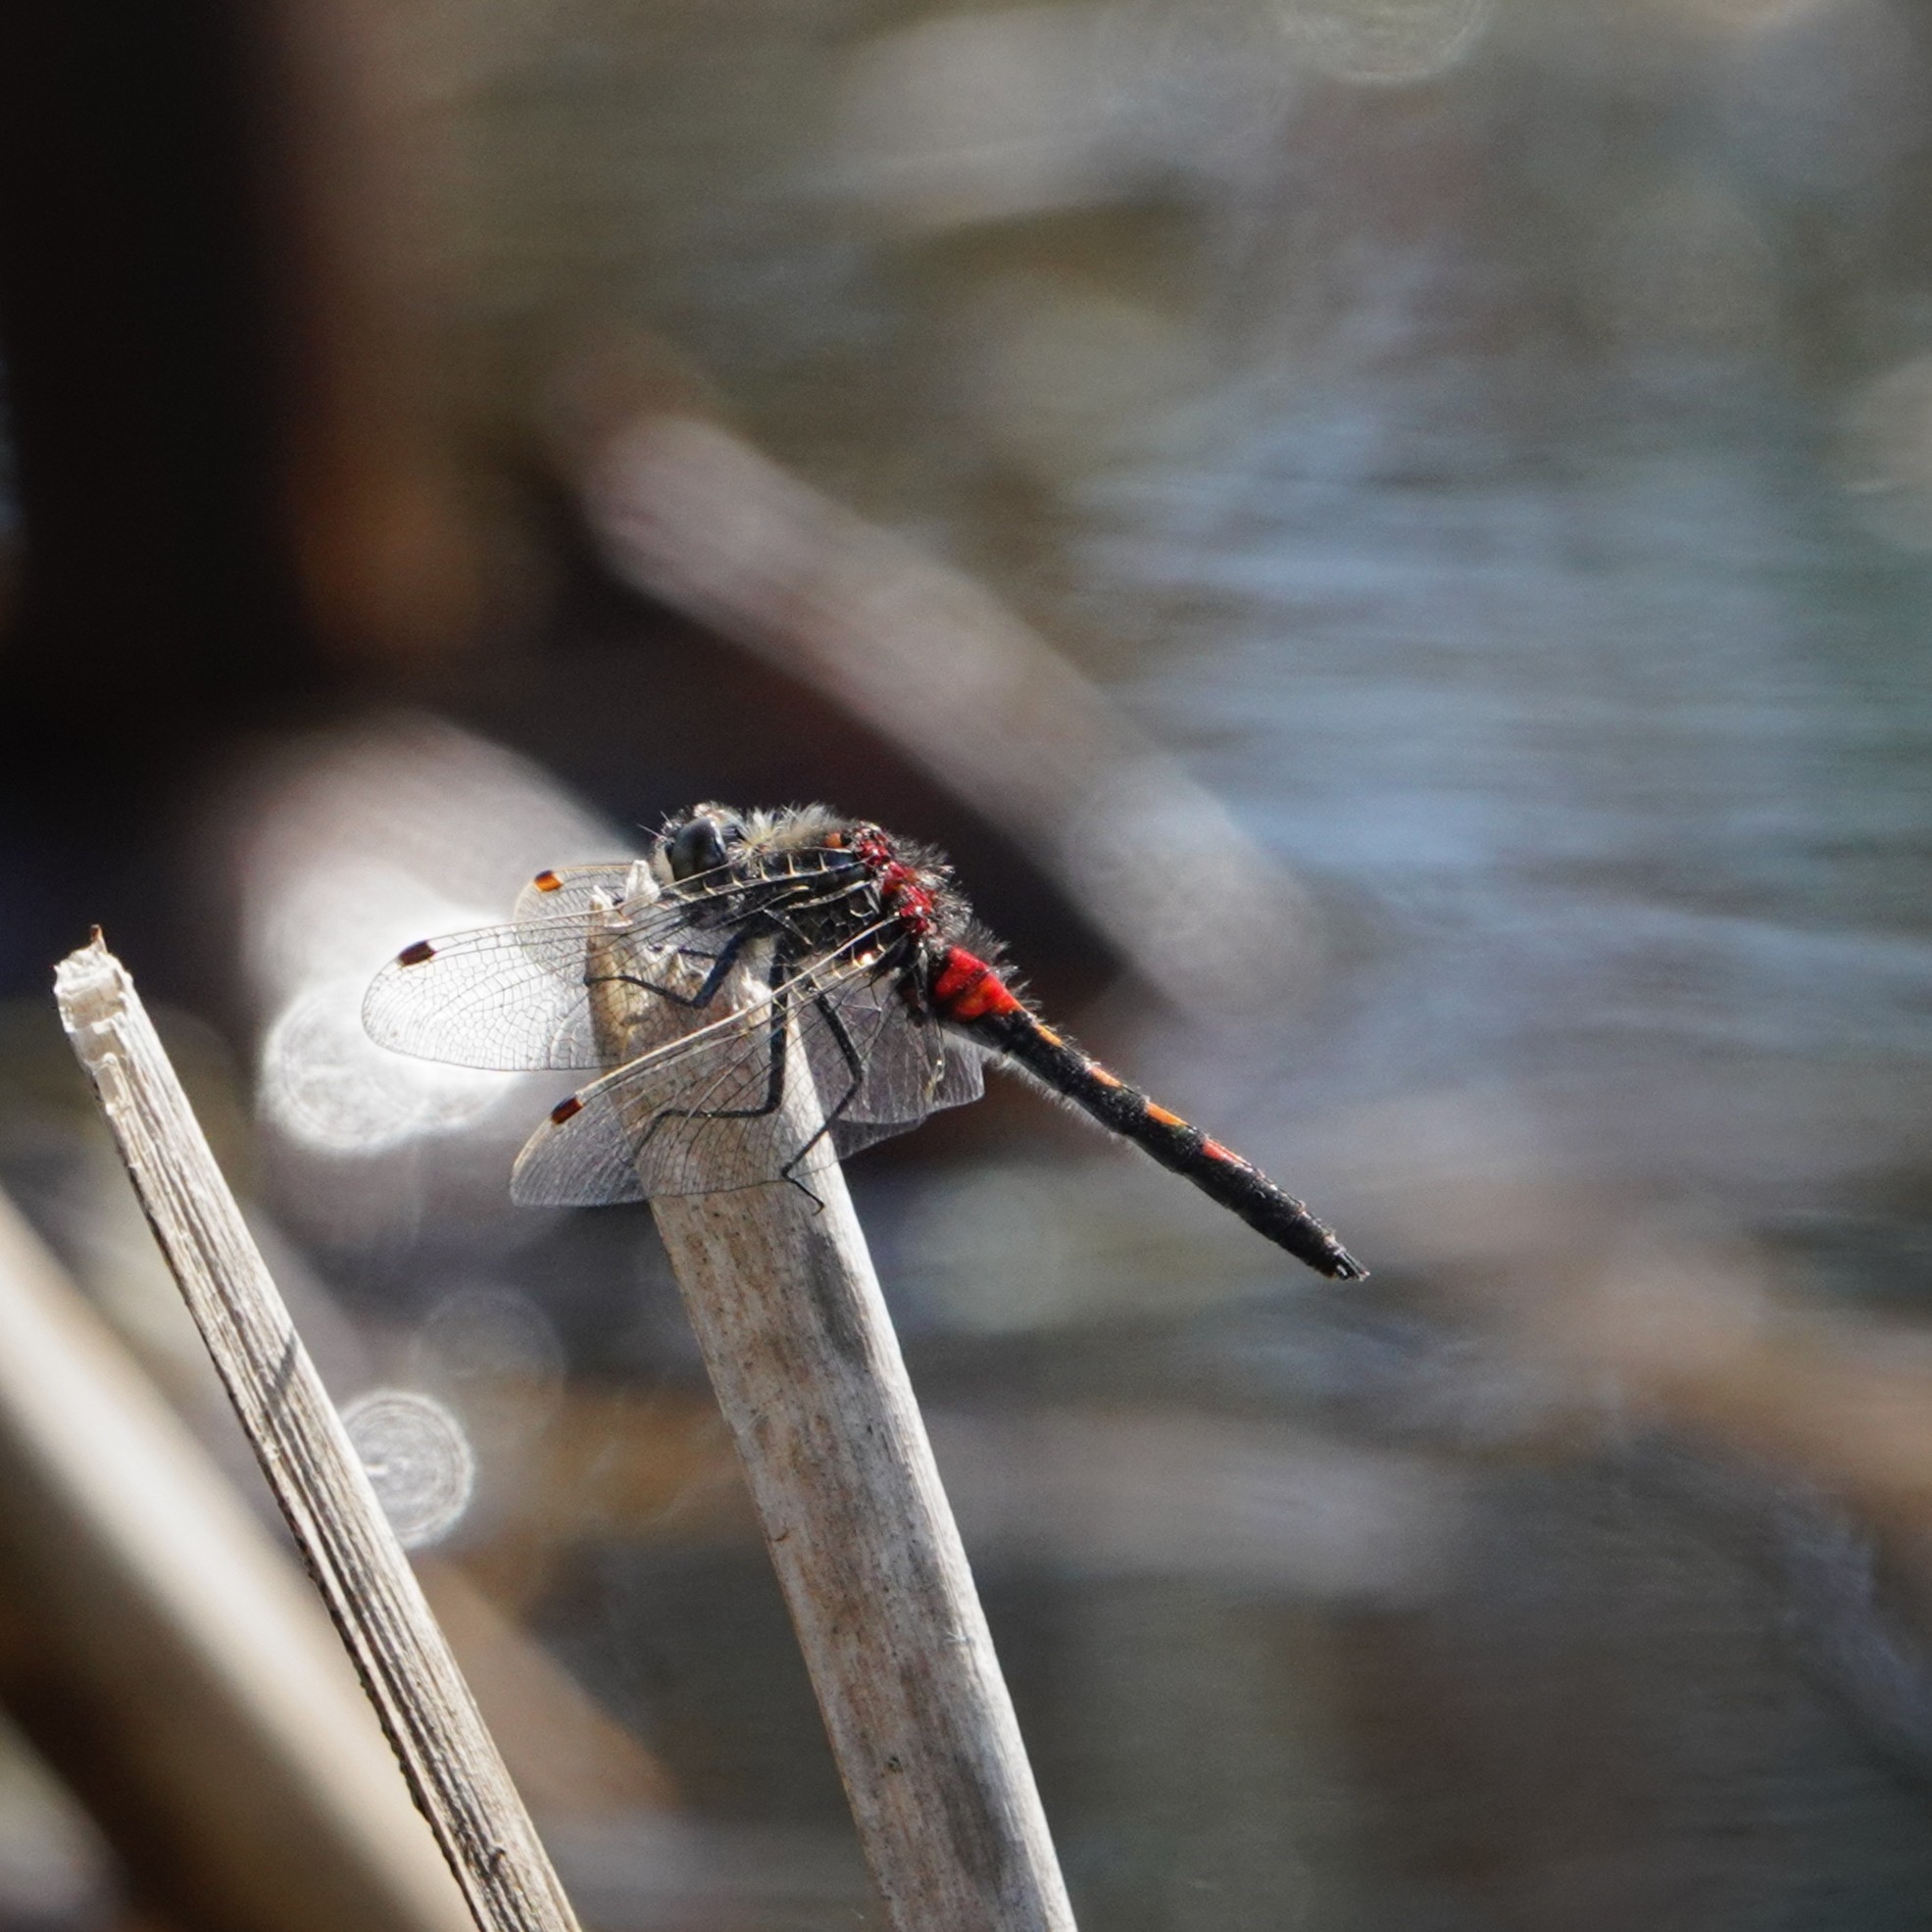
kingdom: Animalia
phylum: Arthropoda
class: Insecta
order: Odonata
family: Libellulidae
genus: Leucorrhinia
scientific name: Leucorrhinia rubicunda
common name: Ruby whiteface
